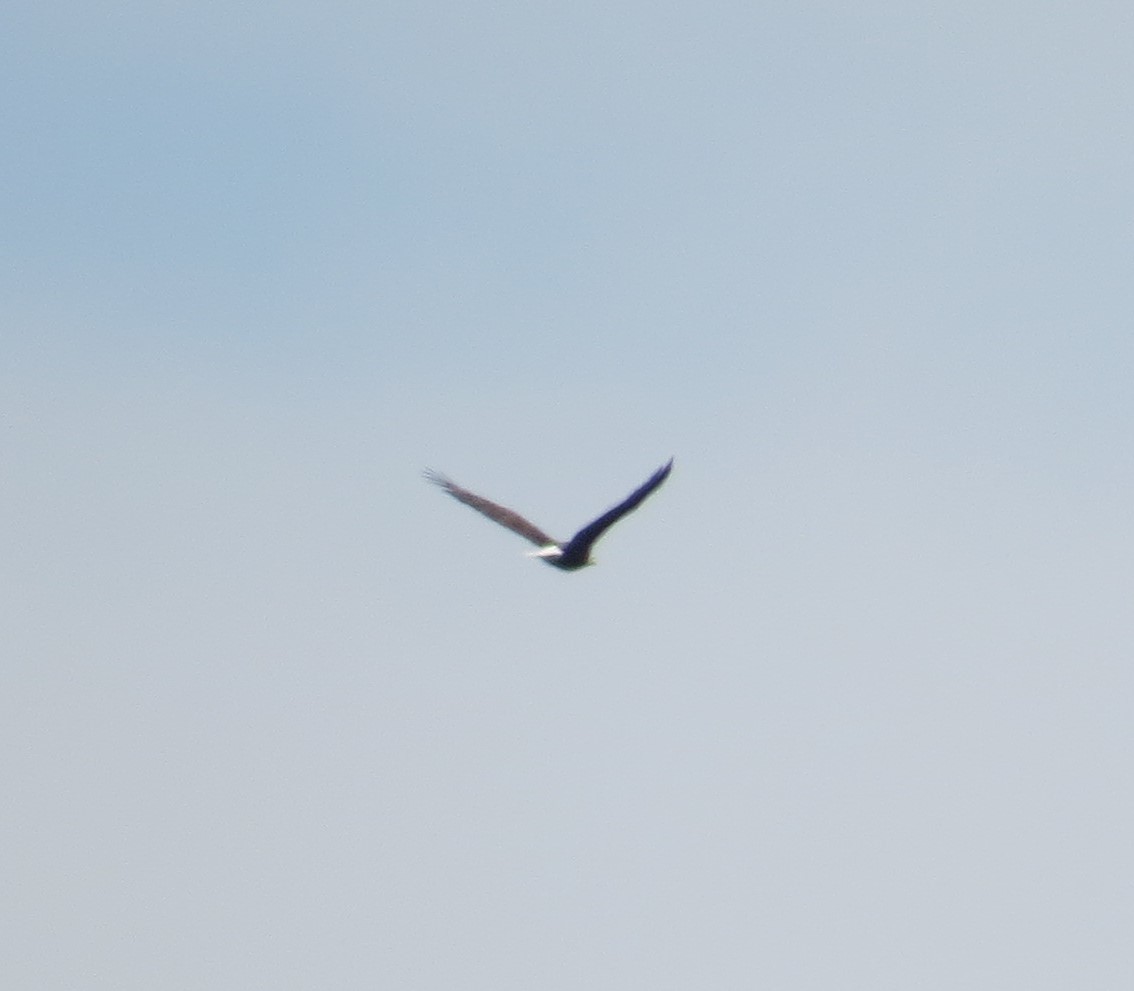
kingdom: Animalia
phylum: Chordata
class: Aves
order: Accipitriformes
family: Accipitridae
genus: Haliaeetus
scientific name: Haliaeetus leucocephalus
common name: Bald eagle
